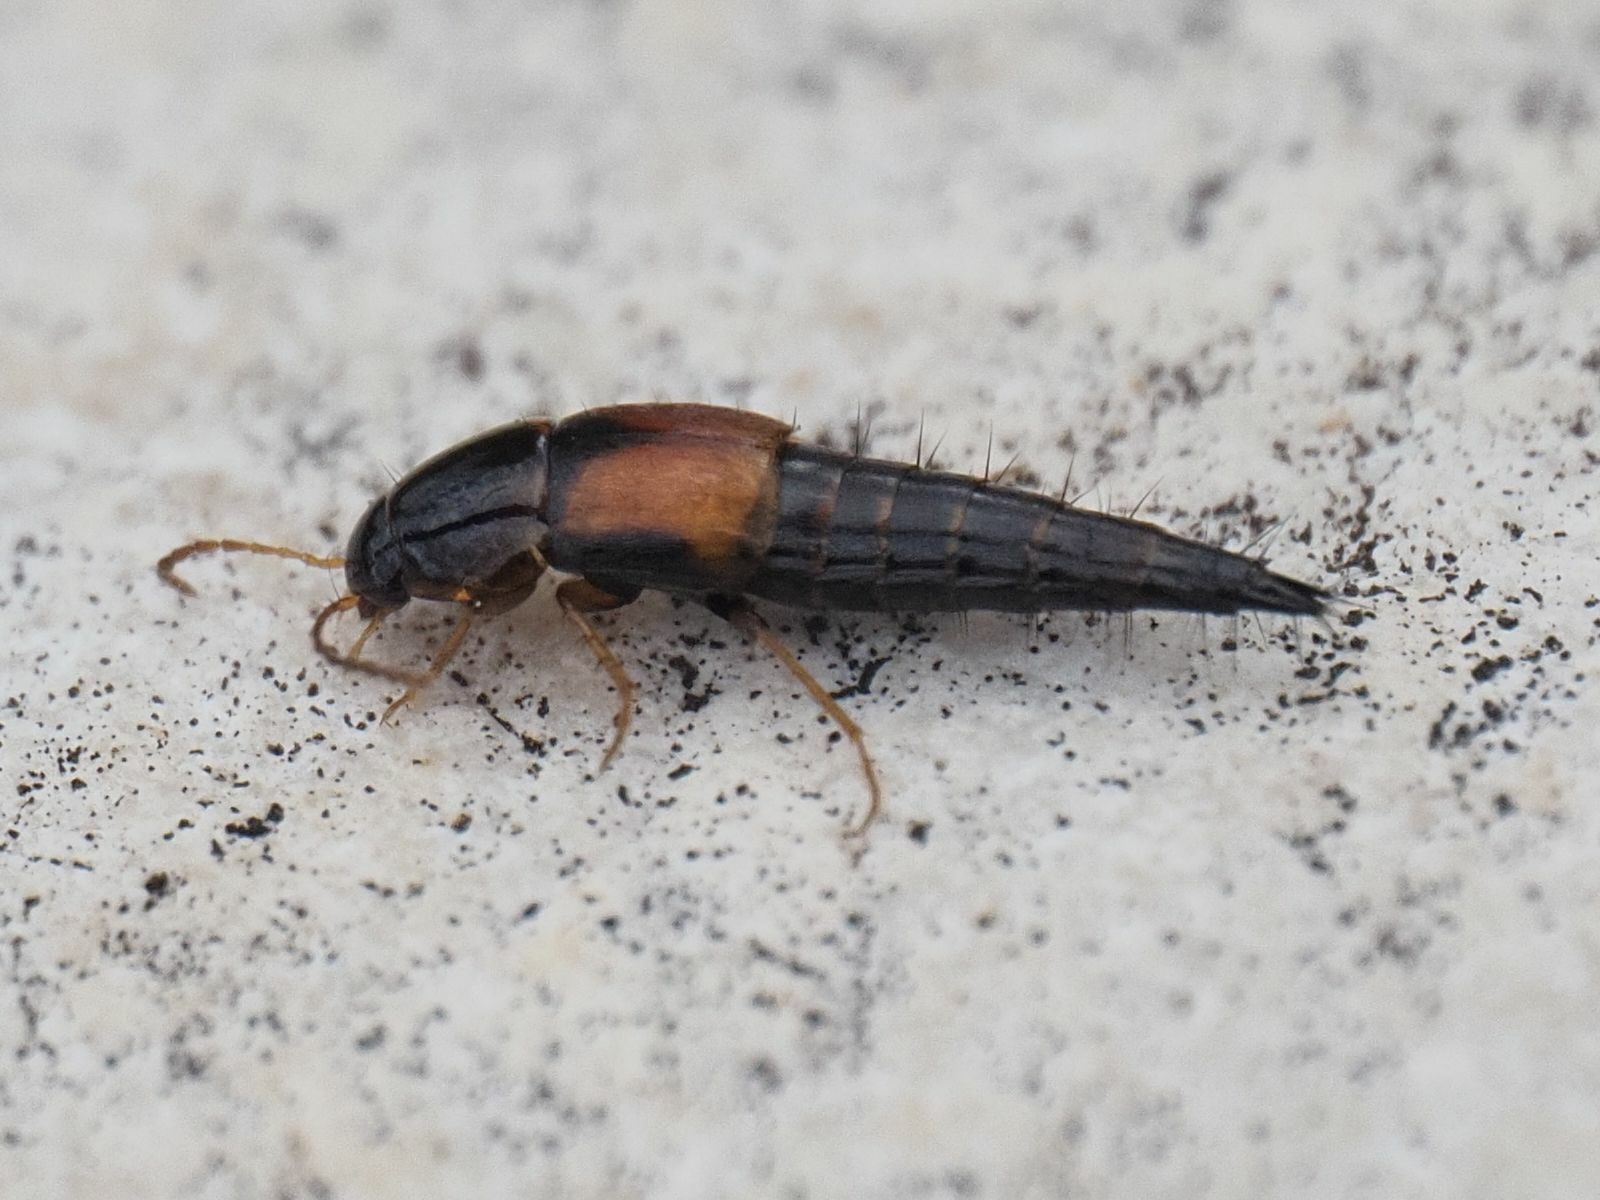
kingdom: Animalia
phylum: Arthropoda
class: Insecta
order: Coleoptera
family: Staphylinidae
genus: Tachyporus
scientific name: Tachyporus hypnorum
